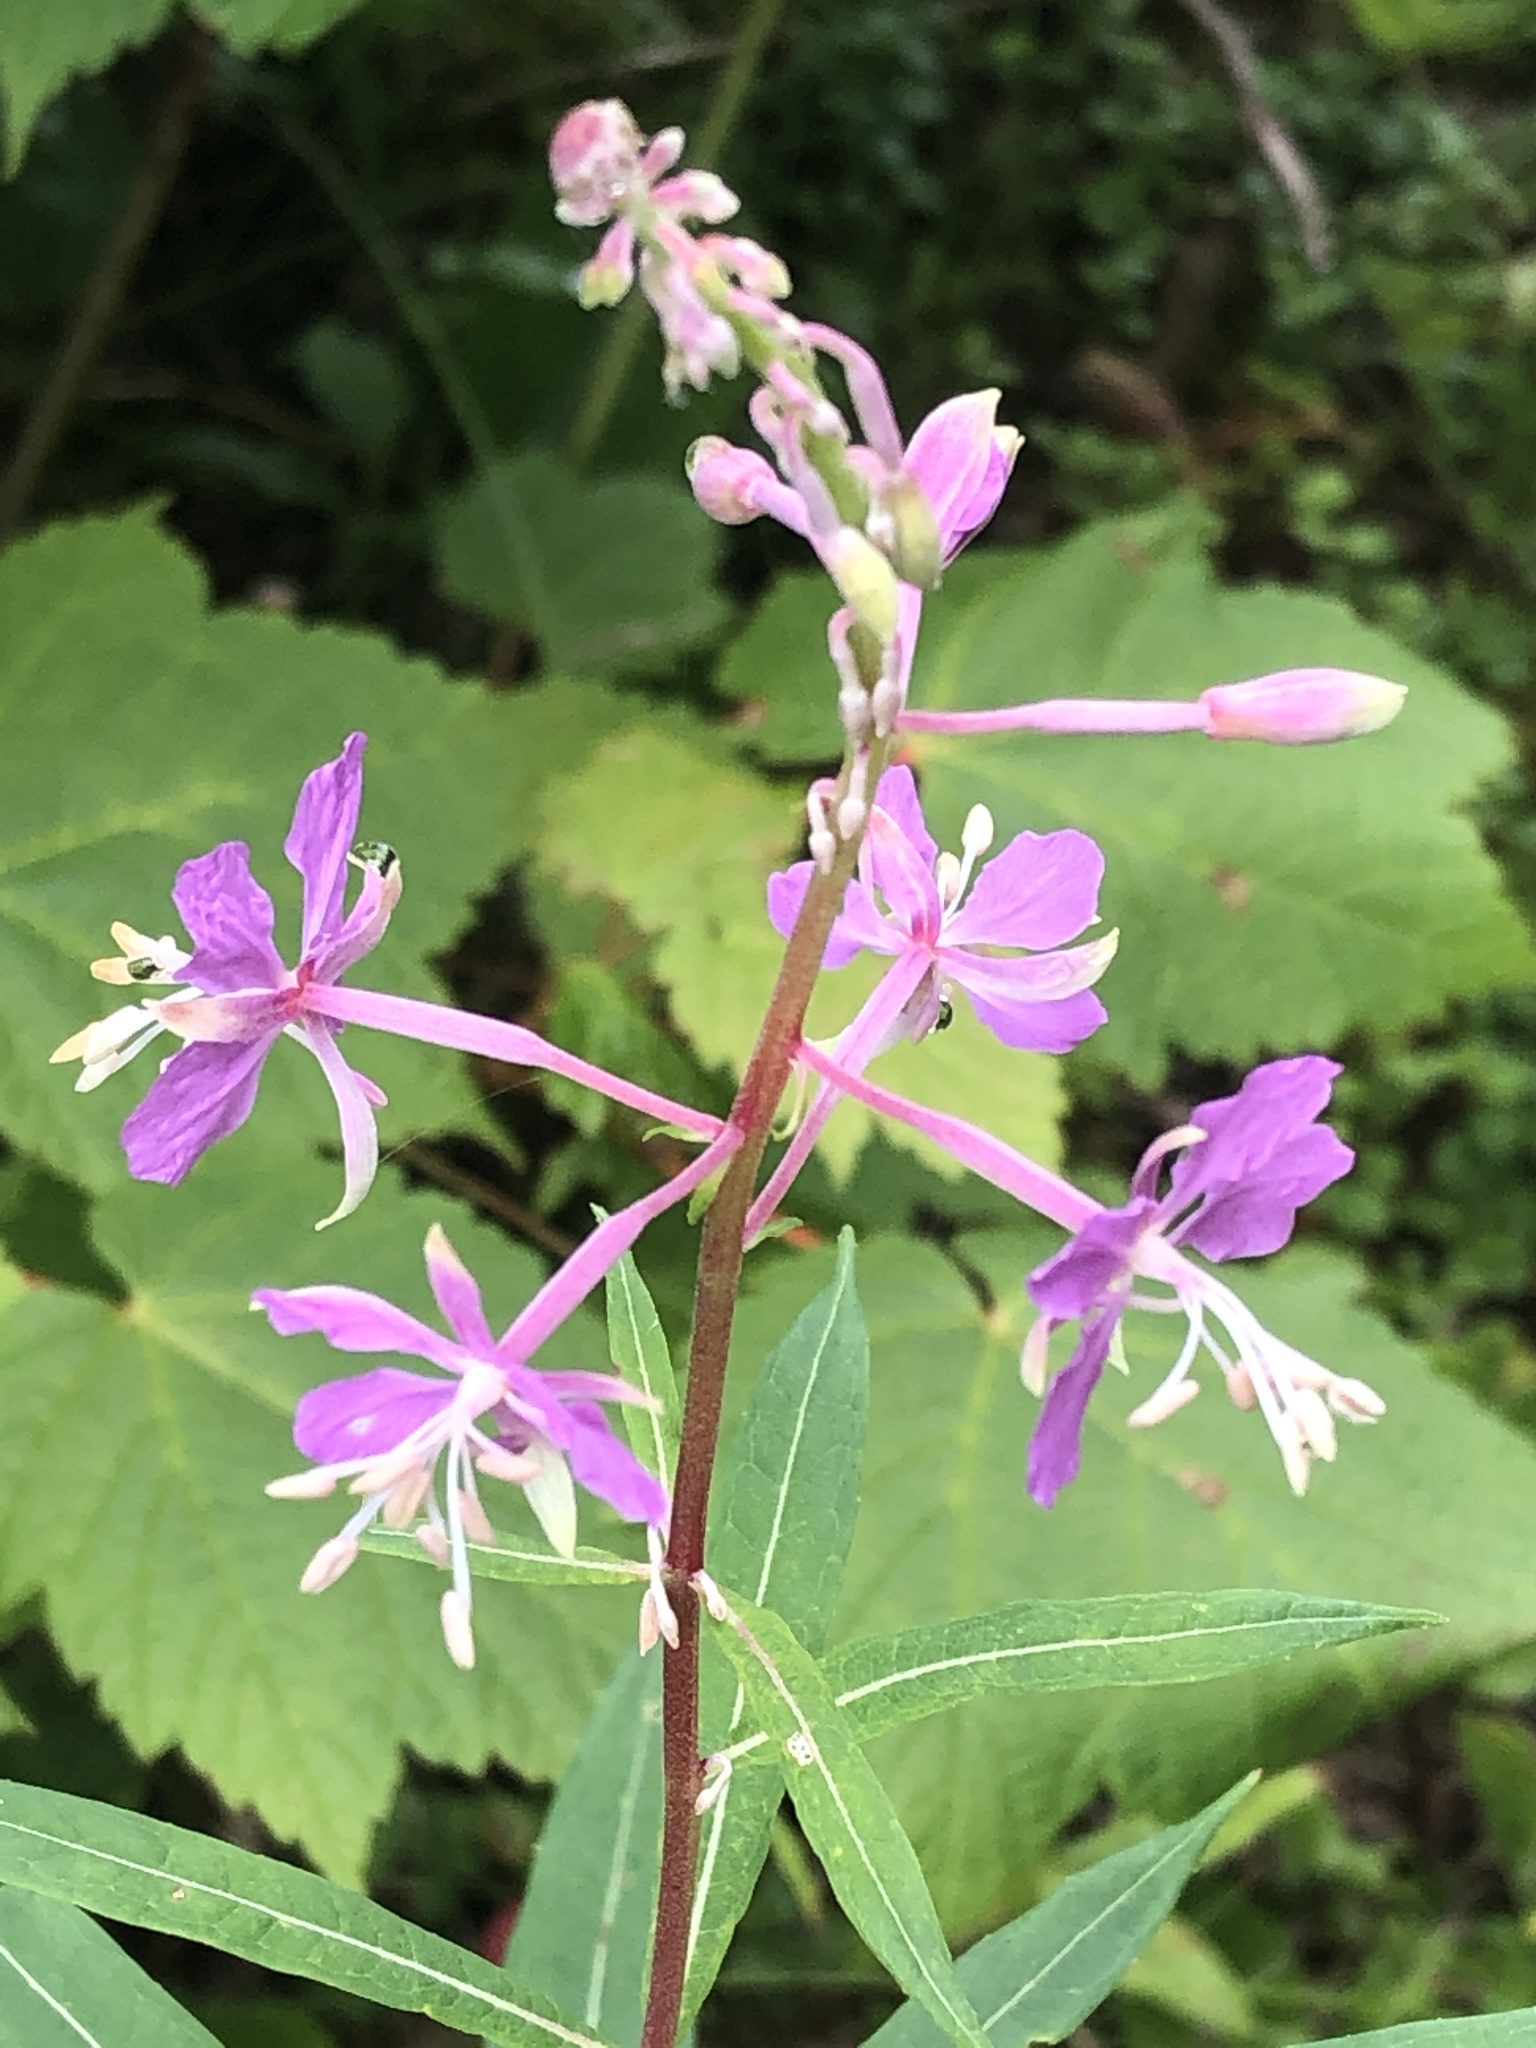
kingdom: Plantae
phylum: Tracheophyta
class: Magnoliopsida
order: Myrtales
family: Onagraceae
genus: Chamaenerion
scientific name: Chamaenerion angustifolium
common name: Fireweed
